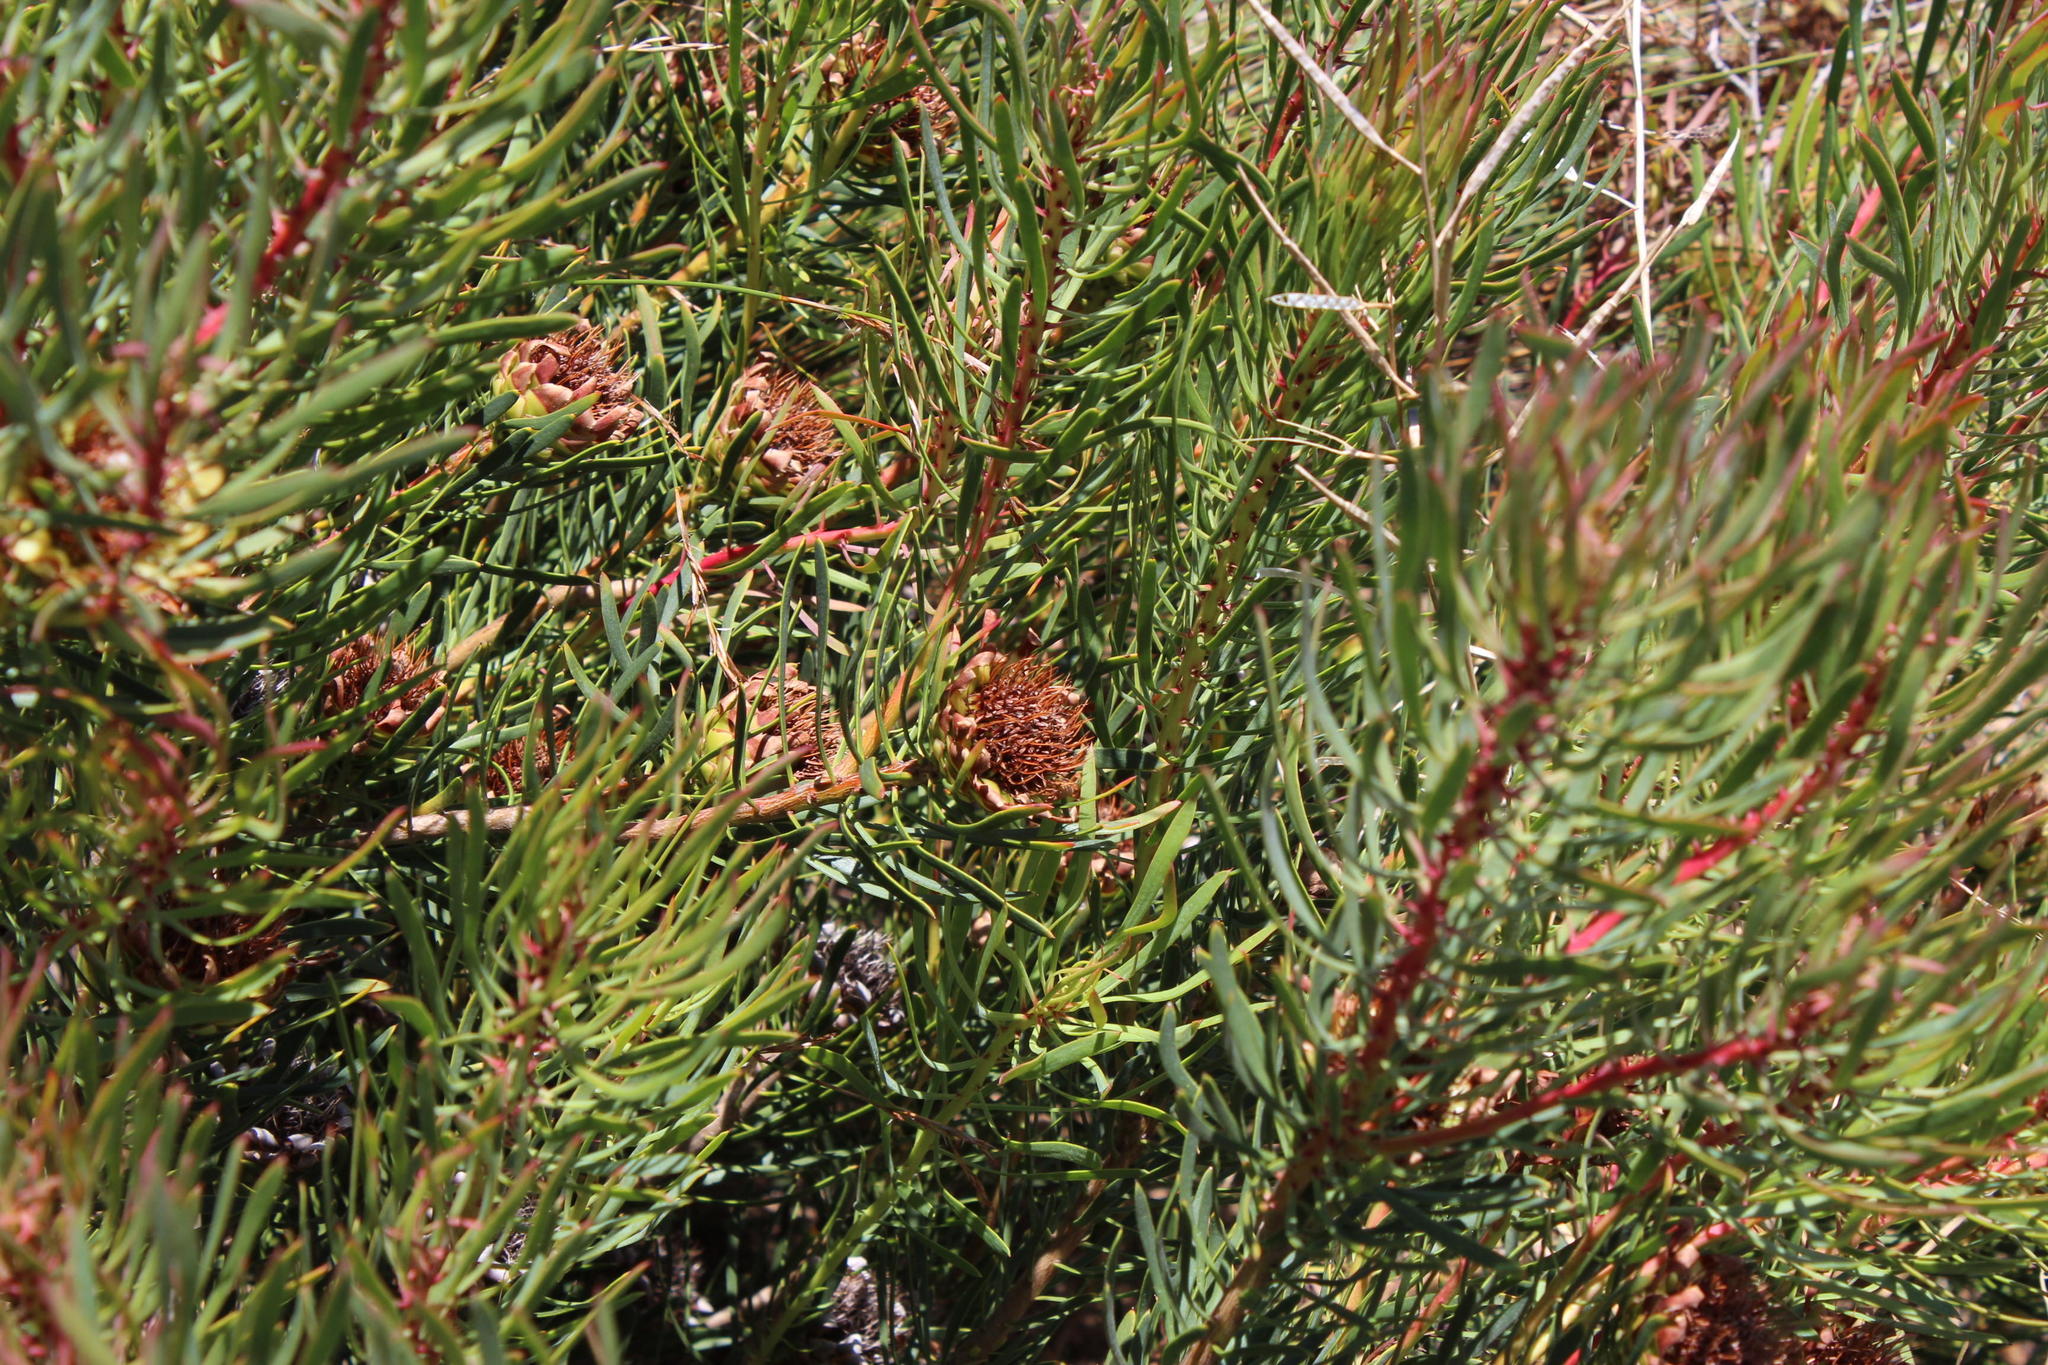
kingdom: Plantae
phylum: Tracheophyta
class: Magnoliopsida
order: Proteales
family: Proteaceae
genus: Protea
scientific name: Protea scolymocephala
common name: Thistle sugarbush
